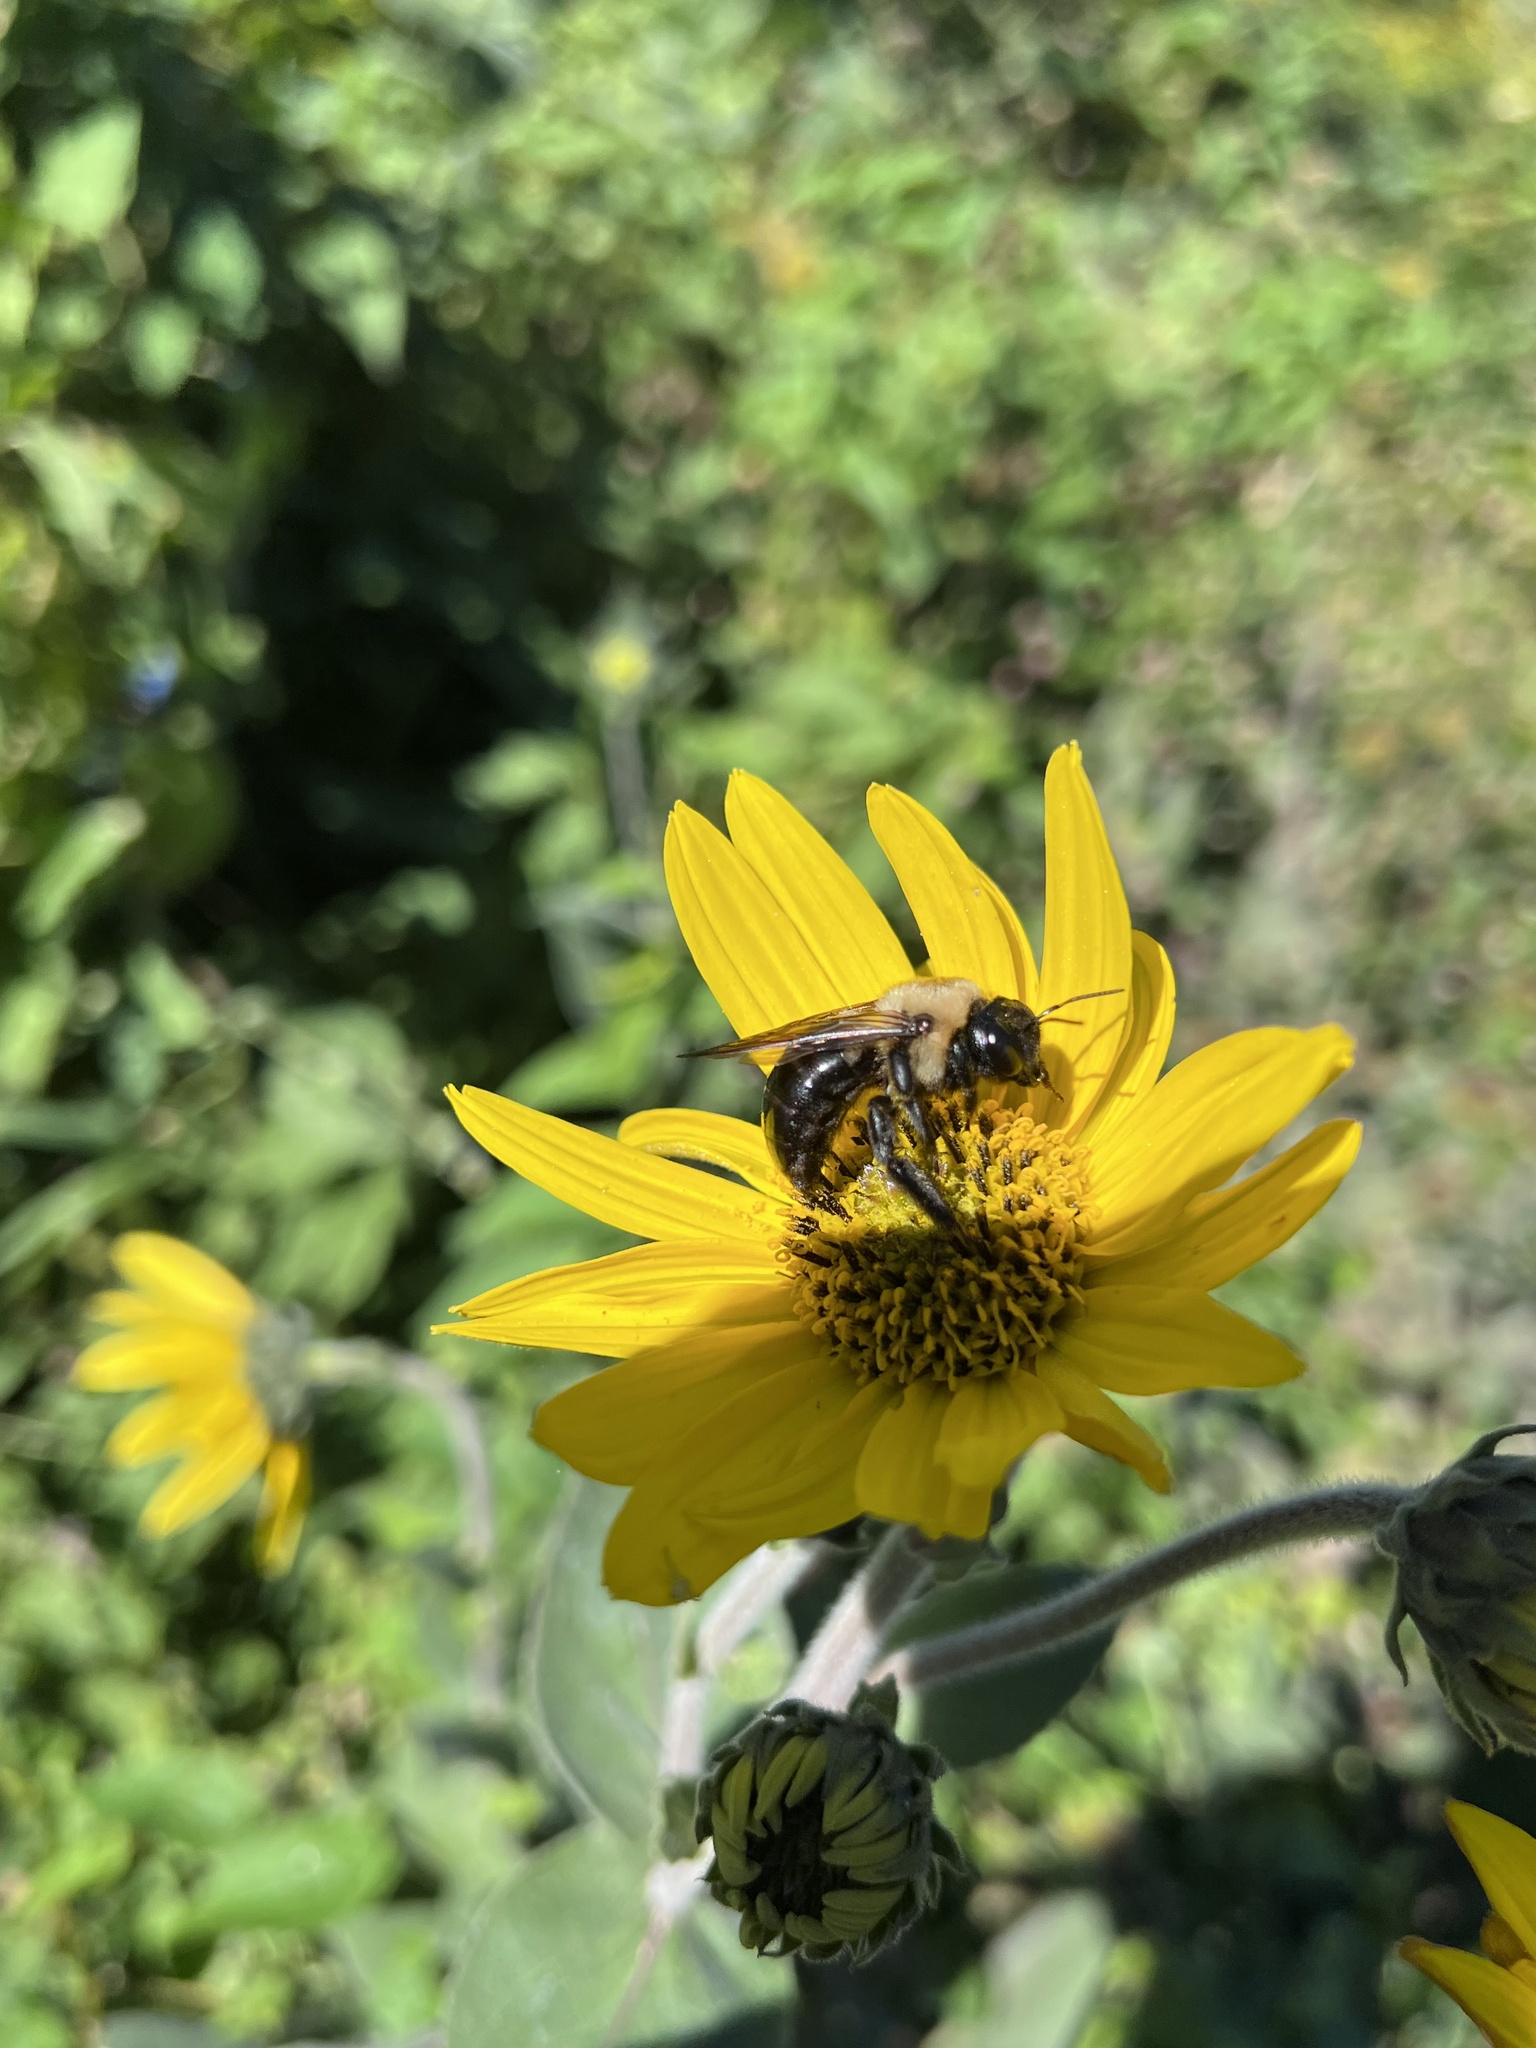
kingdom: Animalia
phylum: Arthropoda
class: Insecta
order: Hymenoptera
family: Apidae
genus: Xylocopa
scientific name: Xylocopa virginica
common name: Carpenter bee
